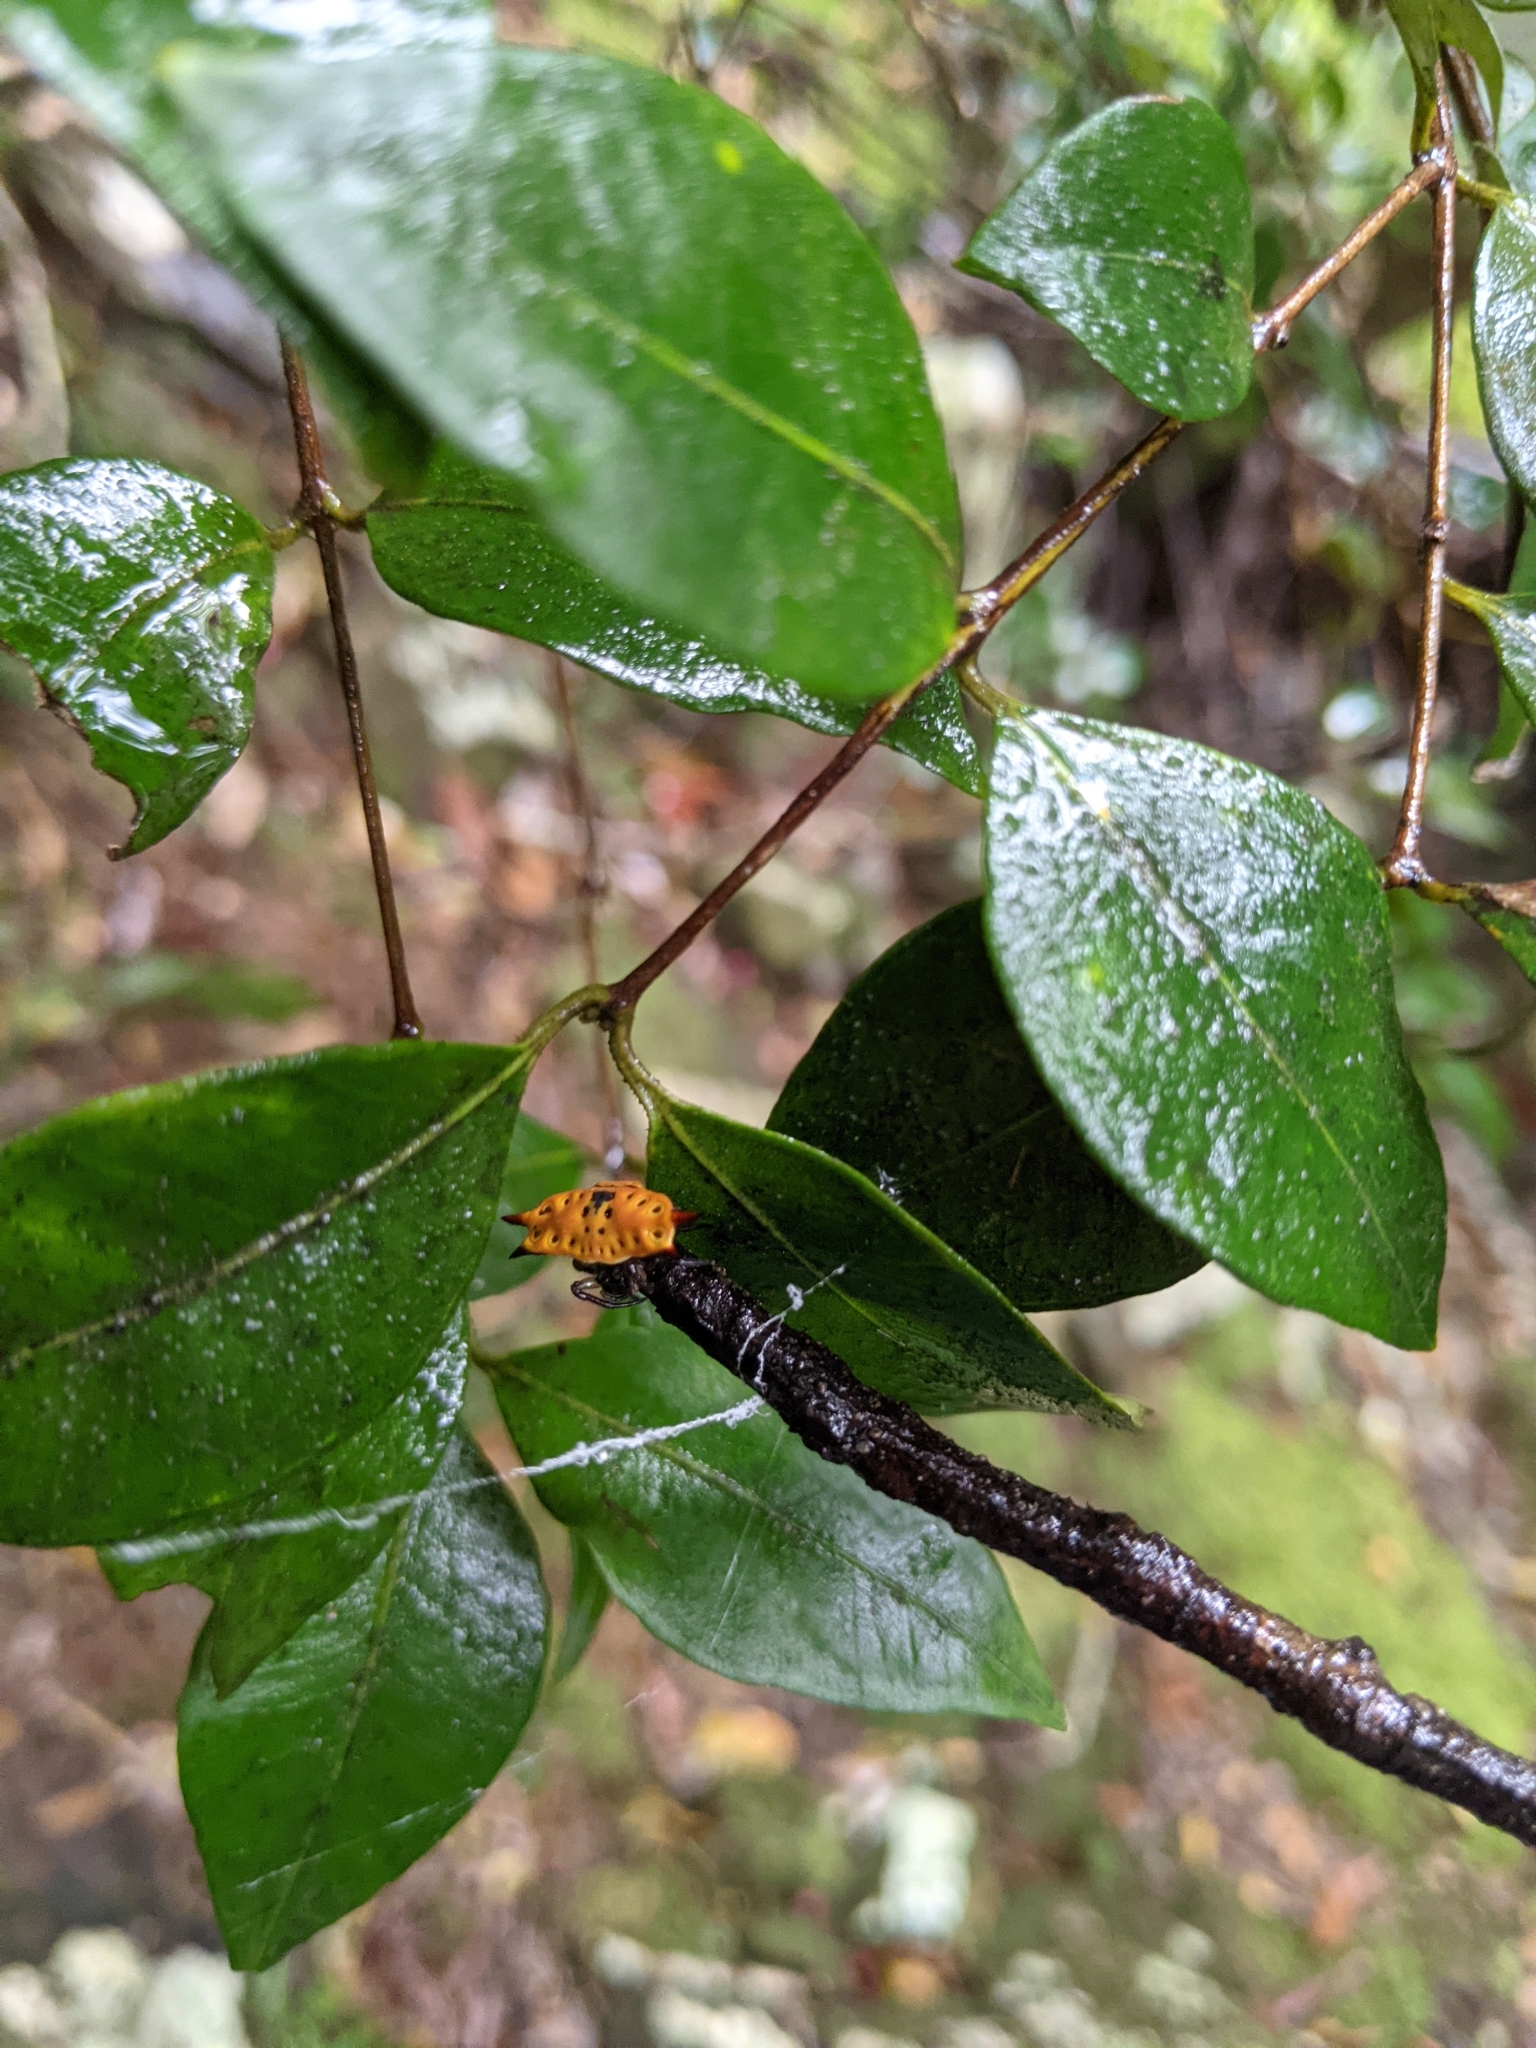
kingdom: Animalia
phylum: Arthropoda
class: Arachnida
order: Araneae
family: Araneidae
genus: Gasteracantha
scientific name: Gasteracantha quadrispinosa
